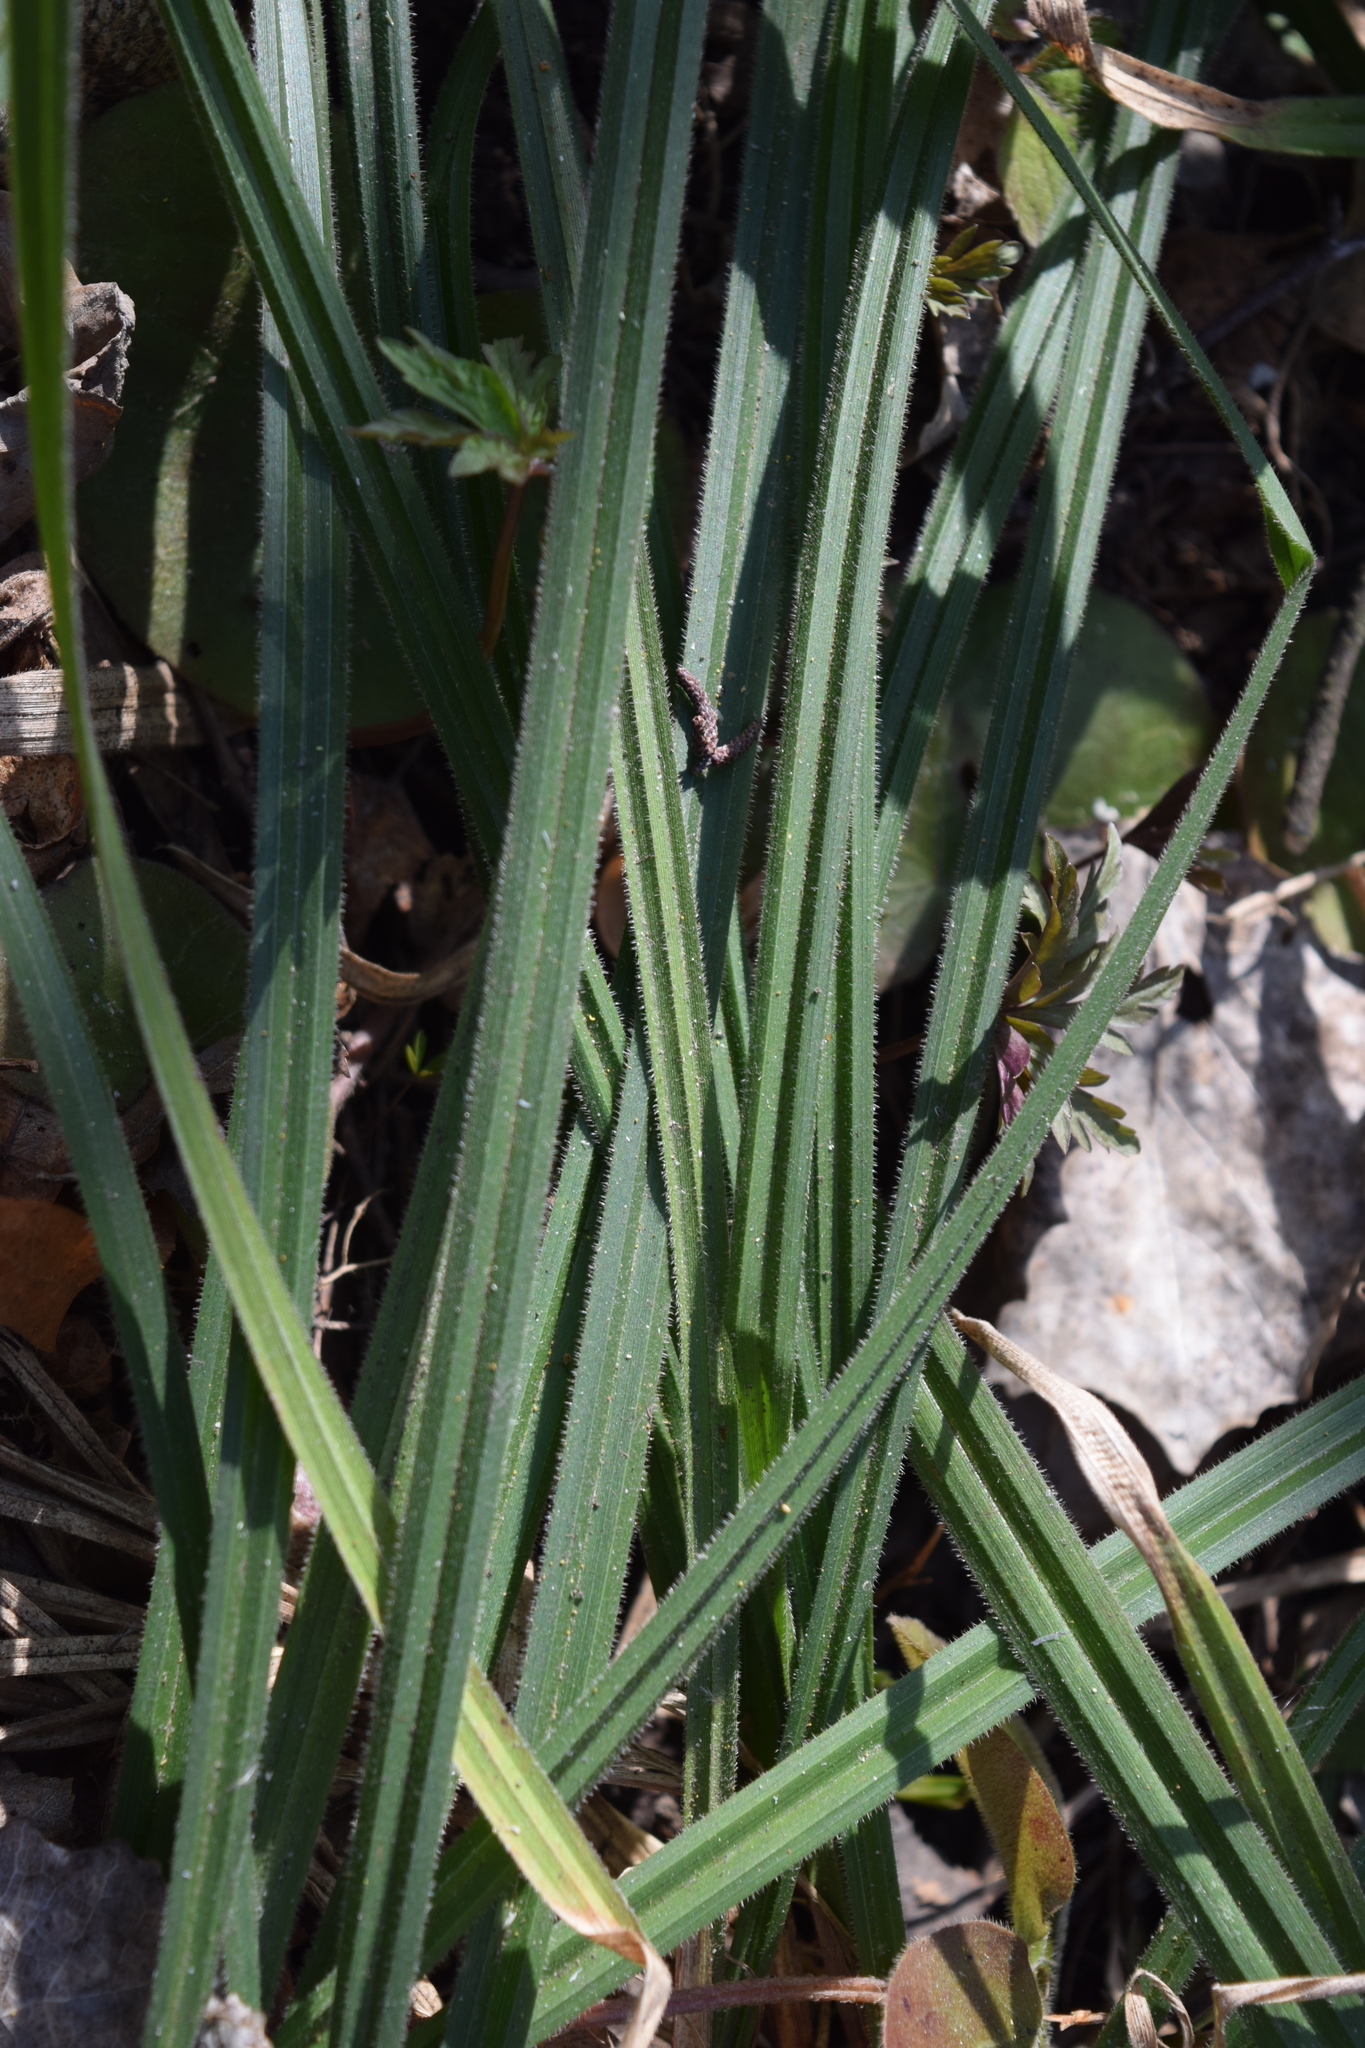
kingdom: Plantae
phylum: Tracheophyta
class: Liliopsida
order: Poales
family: Cyperaceae
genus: Carex
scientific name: Carex pilosa
